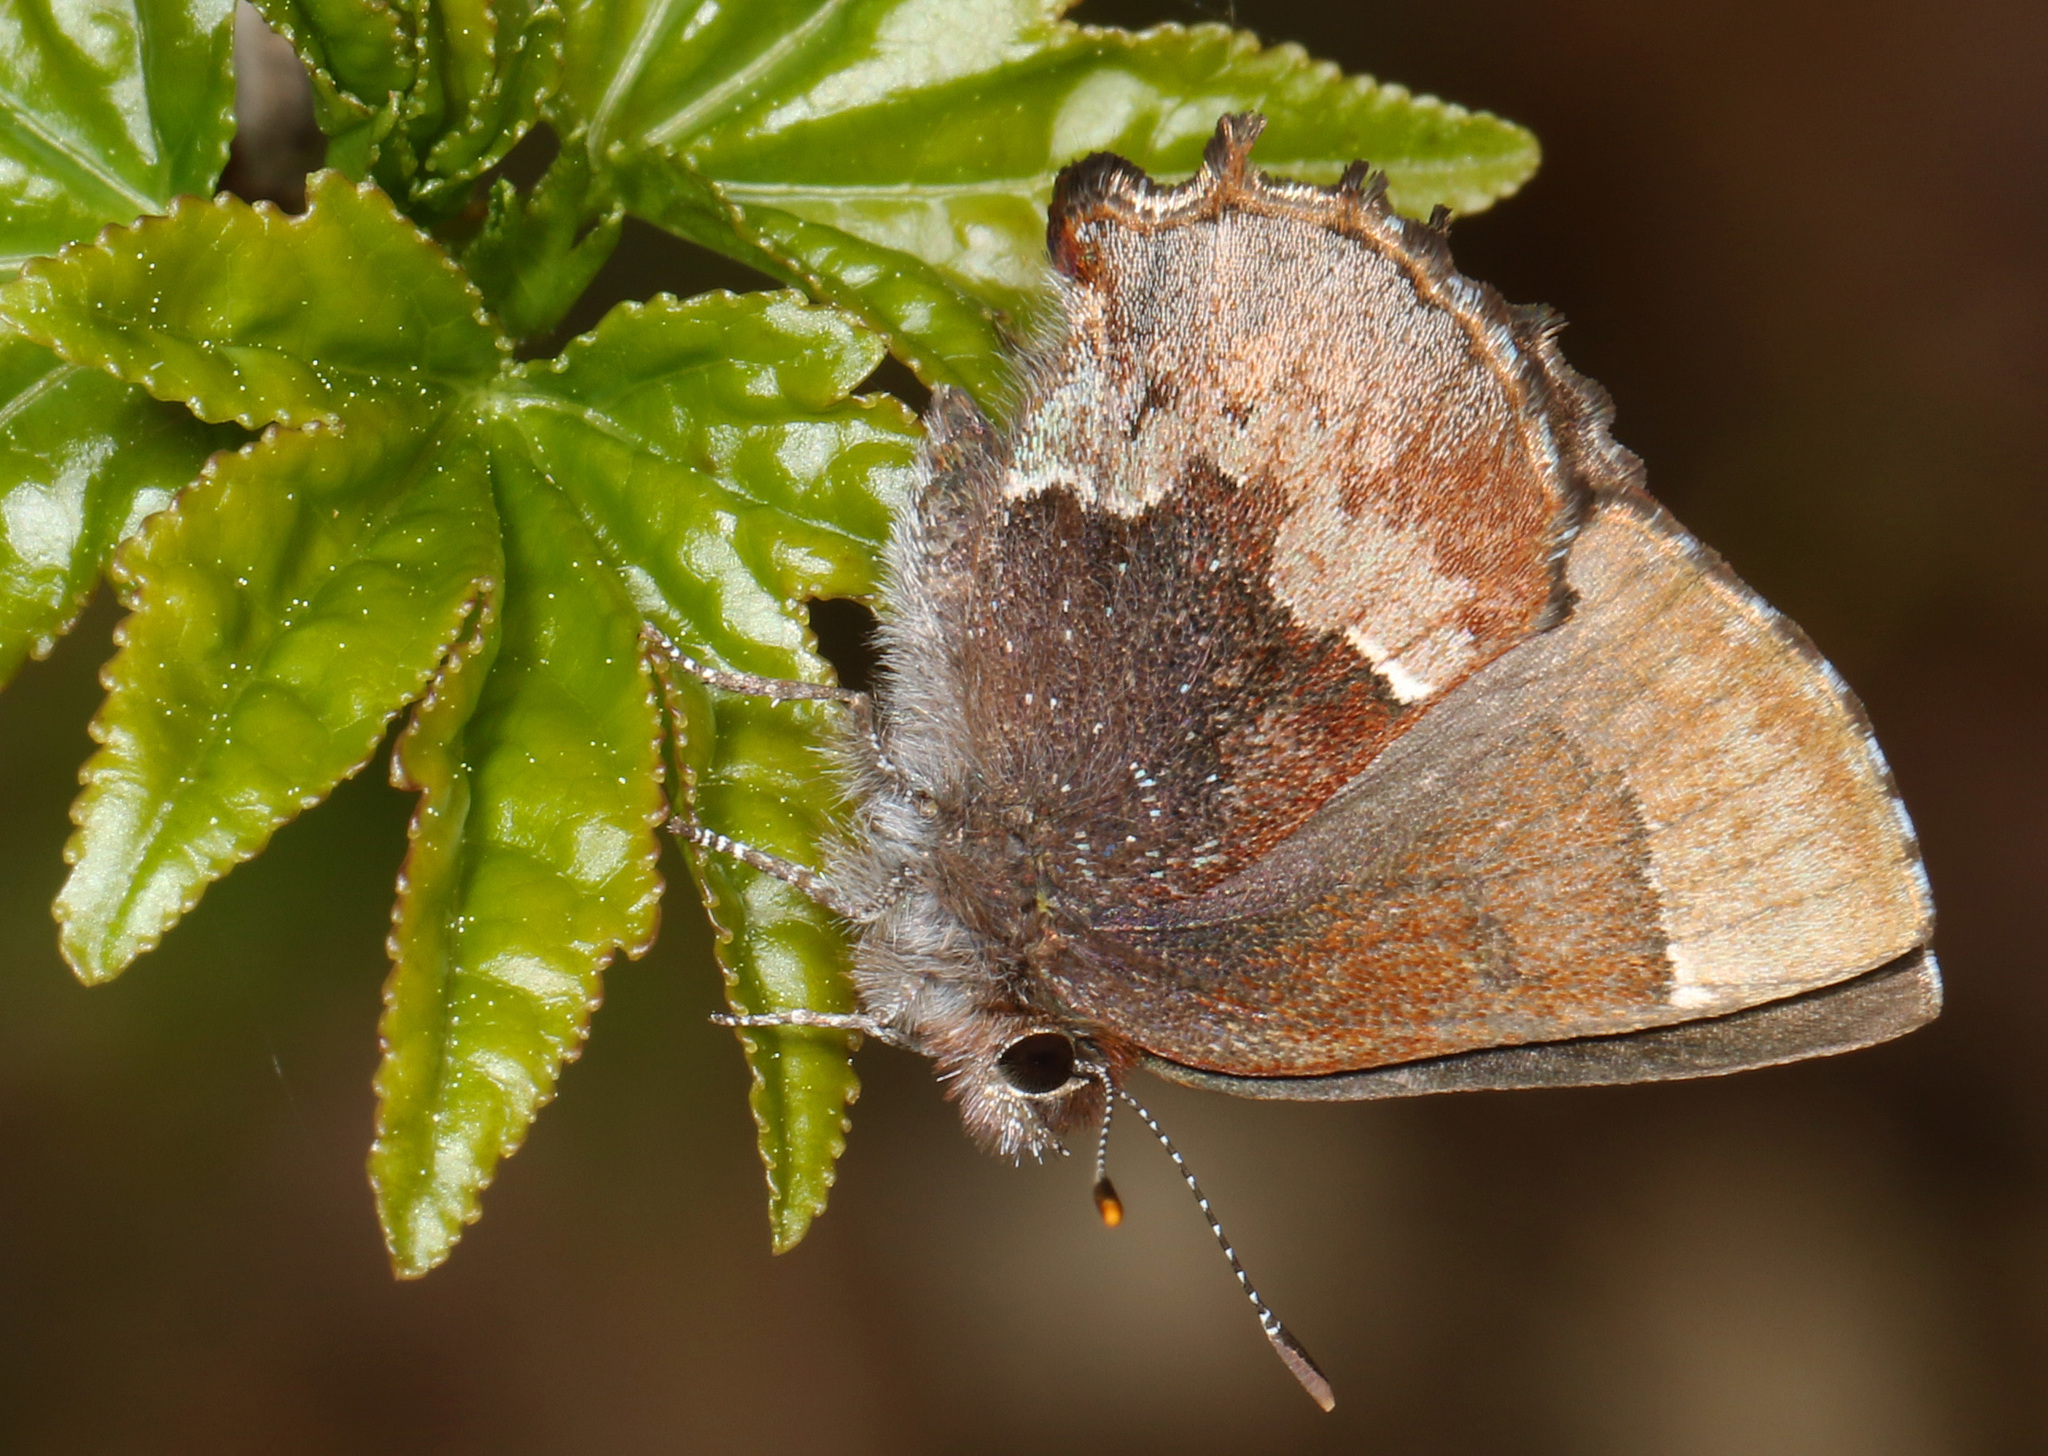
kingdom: Animalia
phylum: Arthropoda
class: Insecta
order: Lepidoptera
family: Lycaenidae
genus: Incisalia
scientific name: Incisalia henrici
